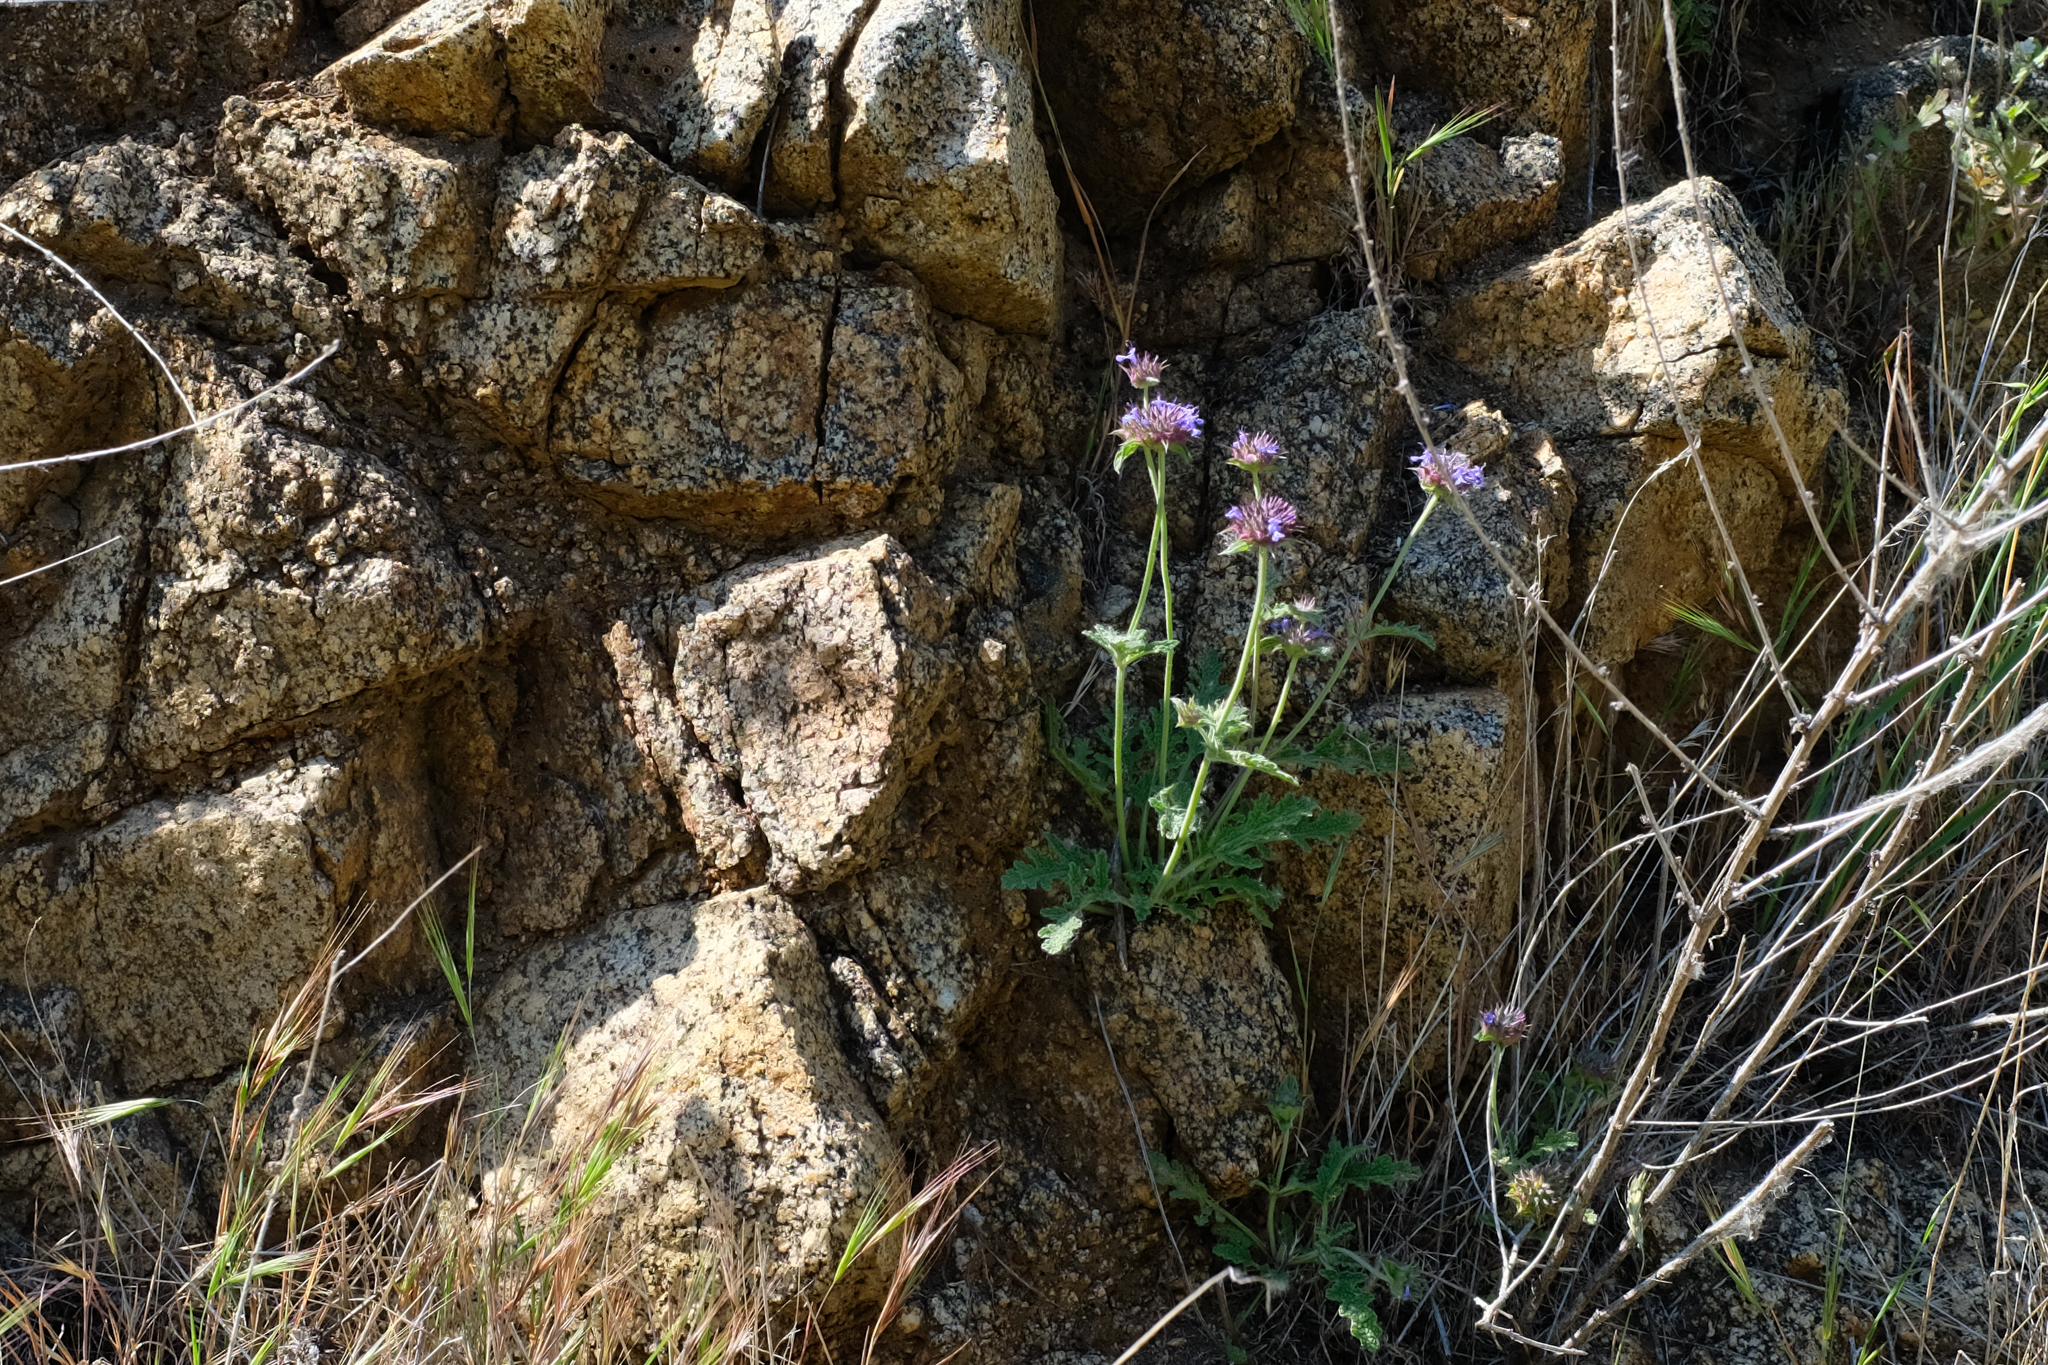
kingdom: Plantae
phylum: Tracheophyta
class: Magnoliopsida
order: Lamiales
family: Lamiaceae
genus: Salvia
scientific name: Salvia columbariae
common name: Chia
